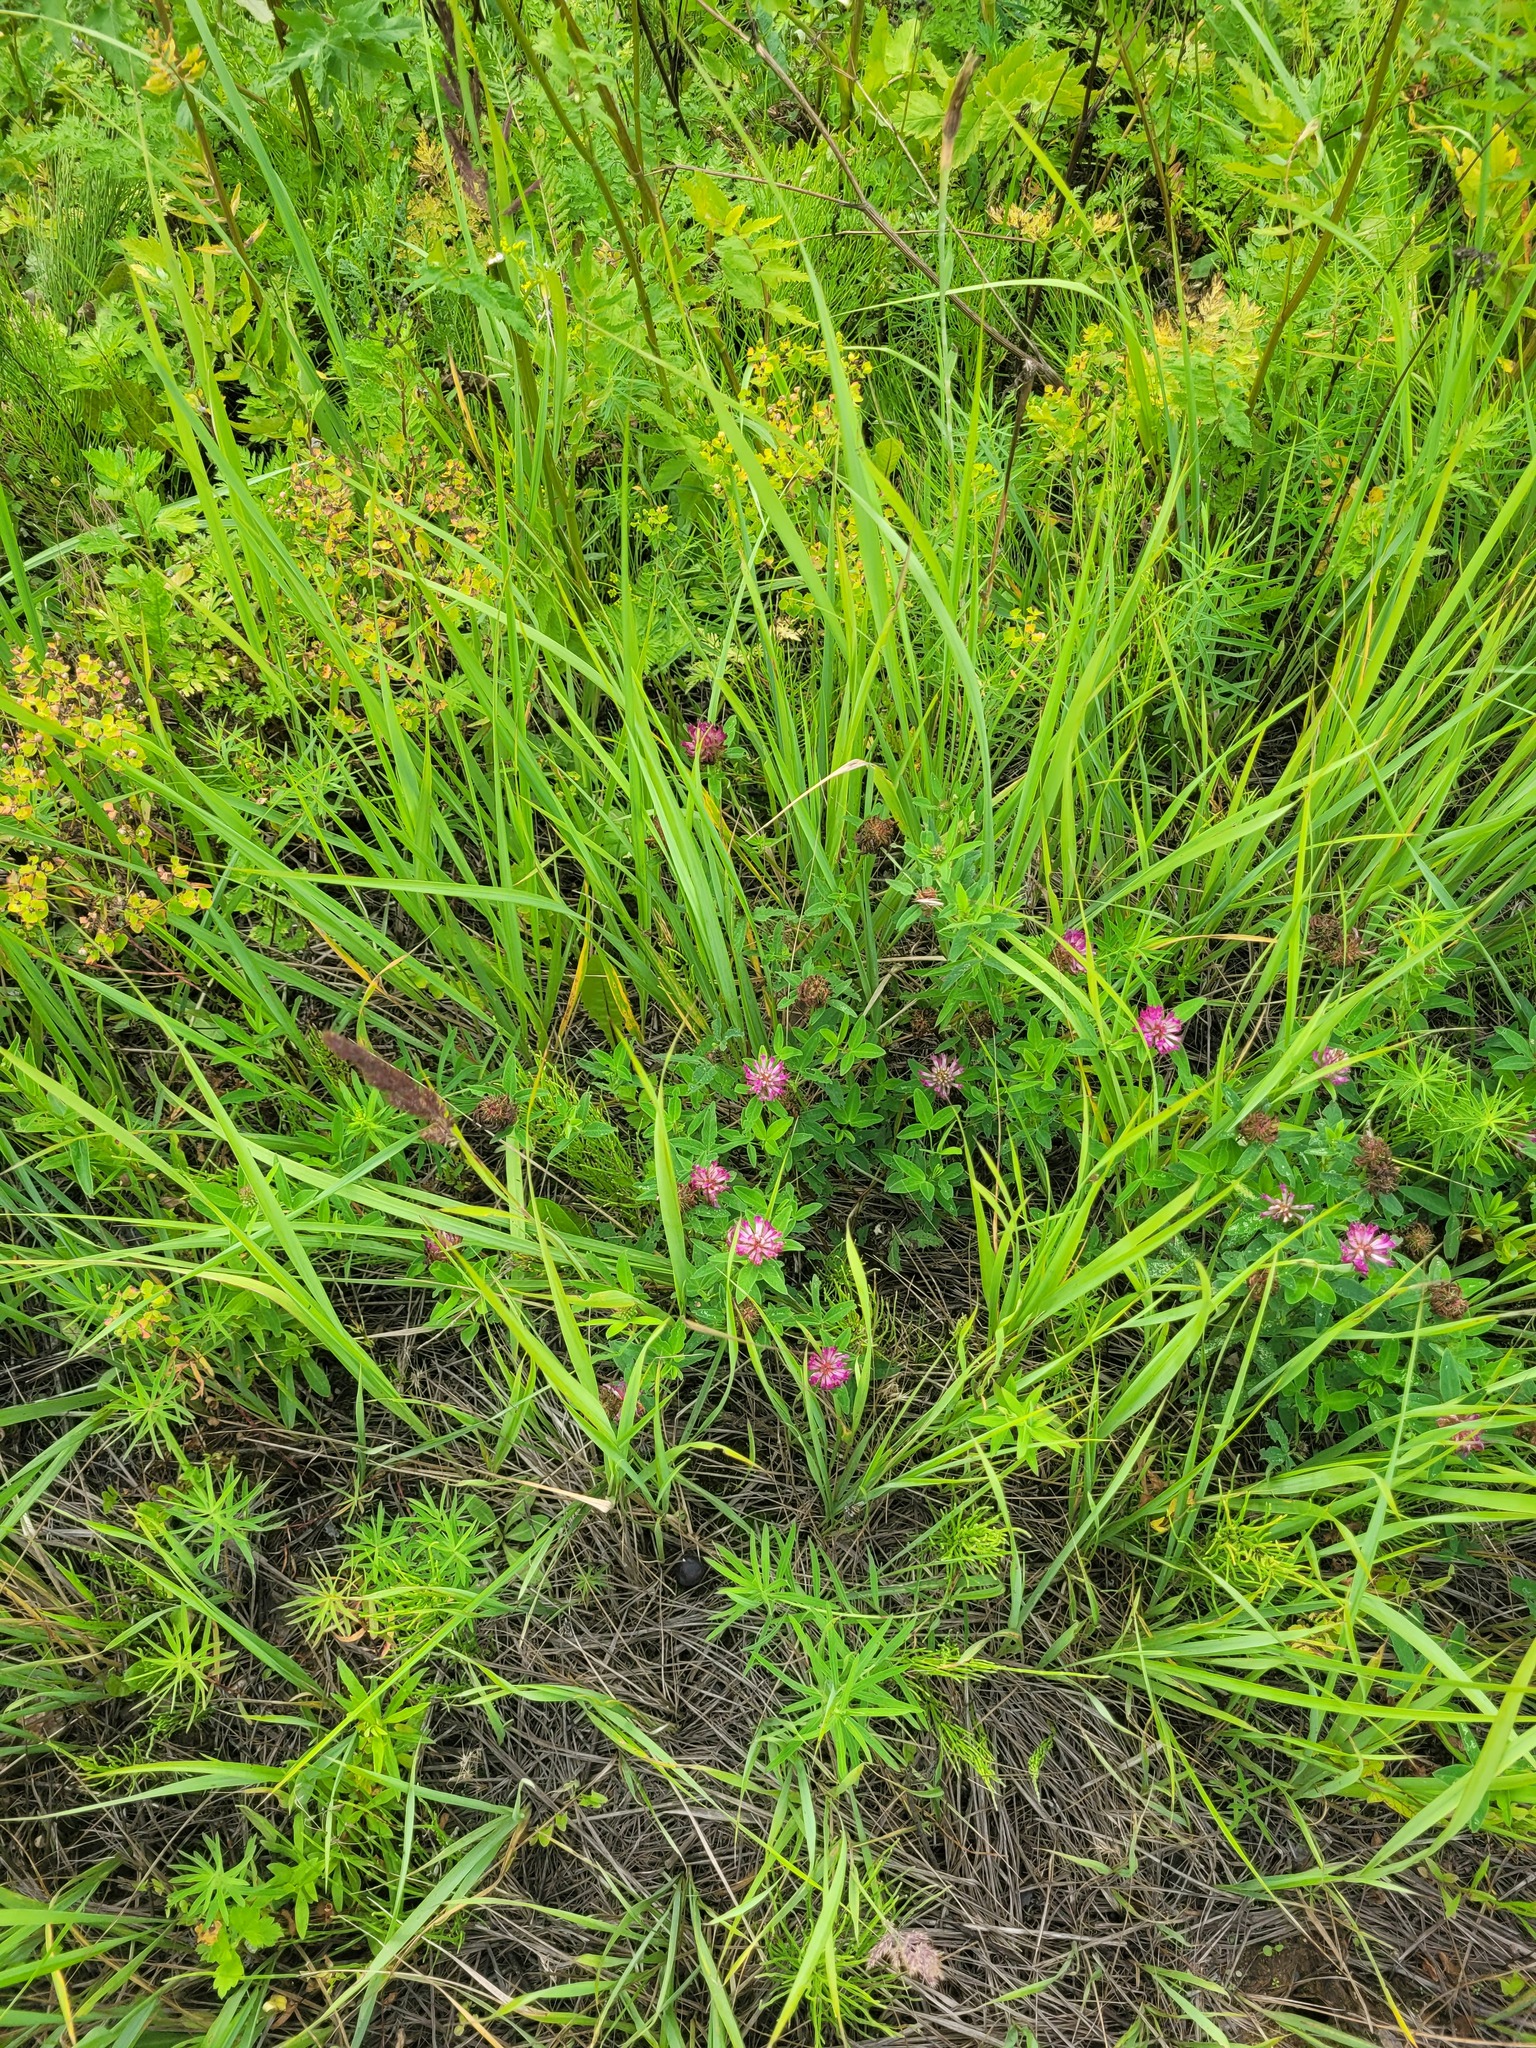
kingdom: Plantae
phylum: Tracheophyta
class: Magnoliopsida
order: Fabales
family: Fabaceae
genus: Trifolium
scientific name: Trifolium medium
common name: Zigzag clover
